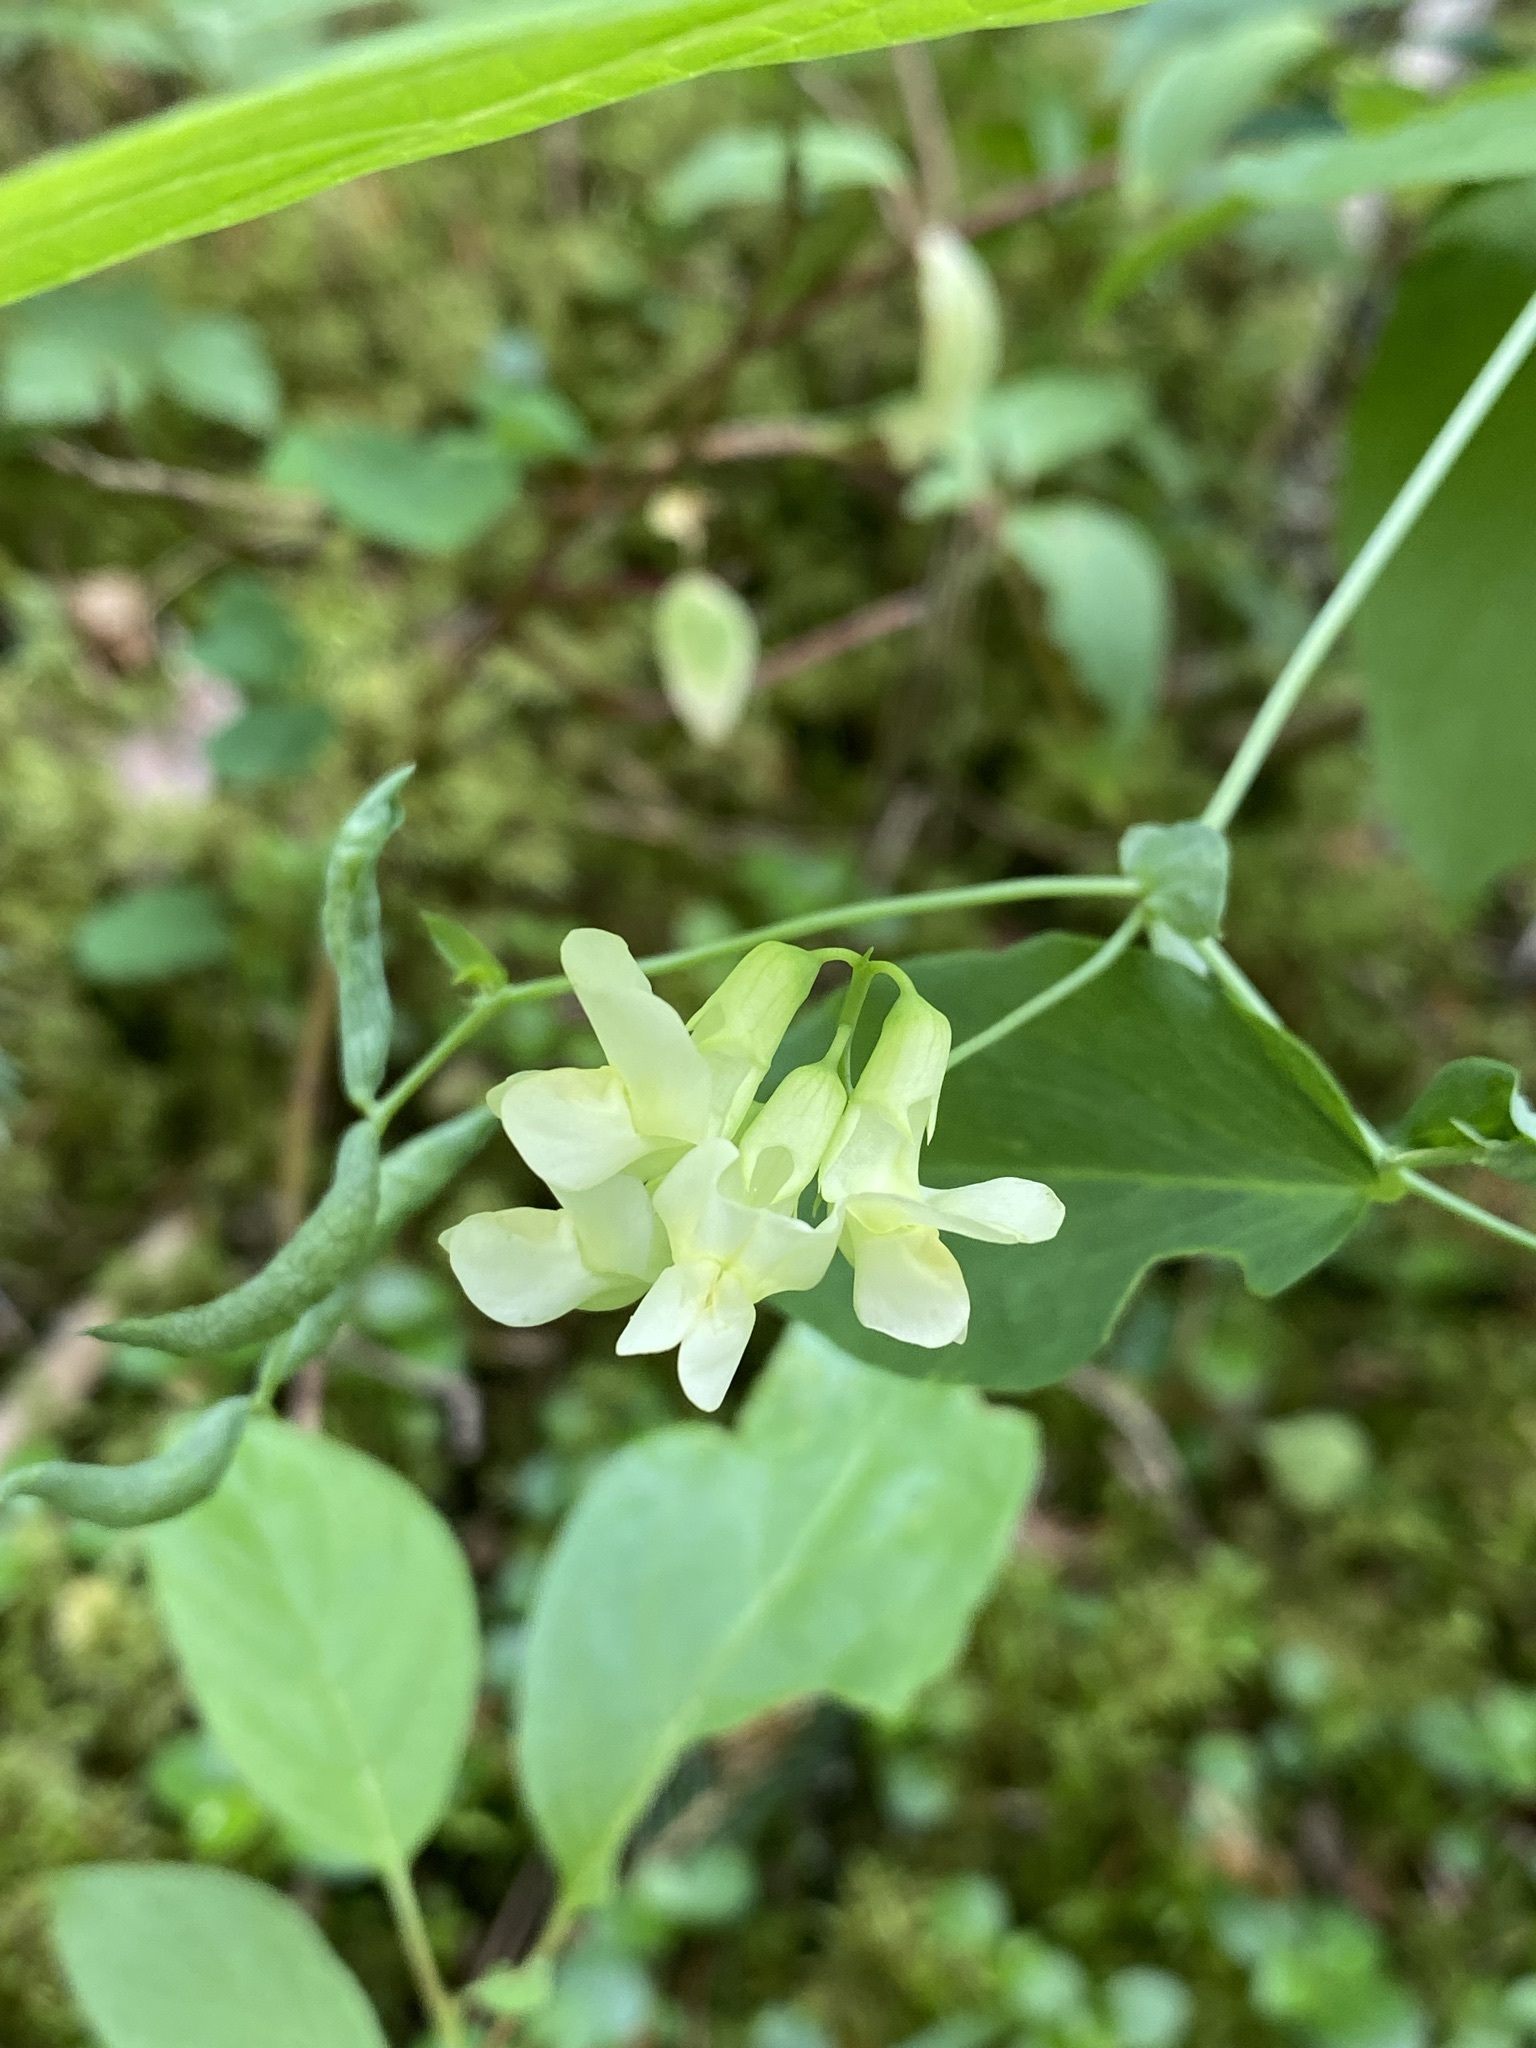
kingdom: Plantae
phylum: Tracheophyta
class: Magnoliopsida
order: Fabales
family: Fabaceae
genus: Lathyrus
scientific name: Lathyrus ochroleucus
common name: Pale vetchling
